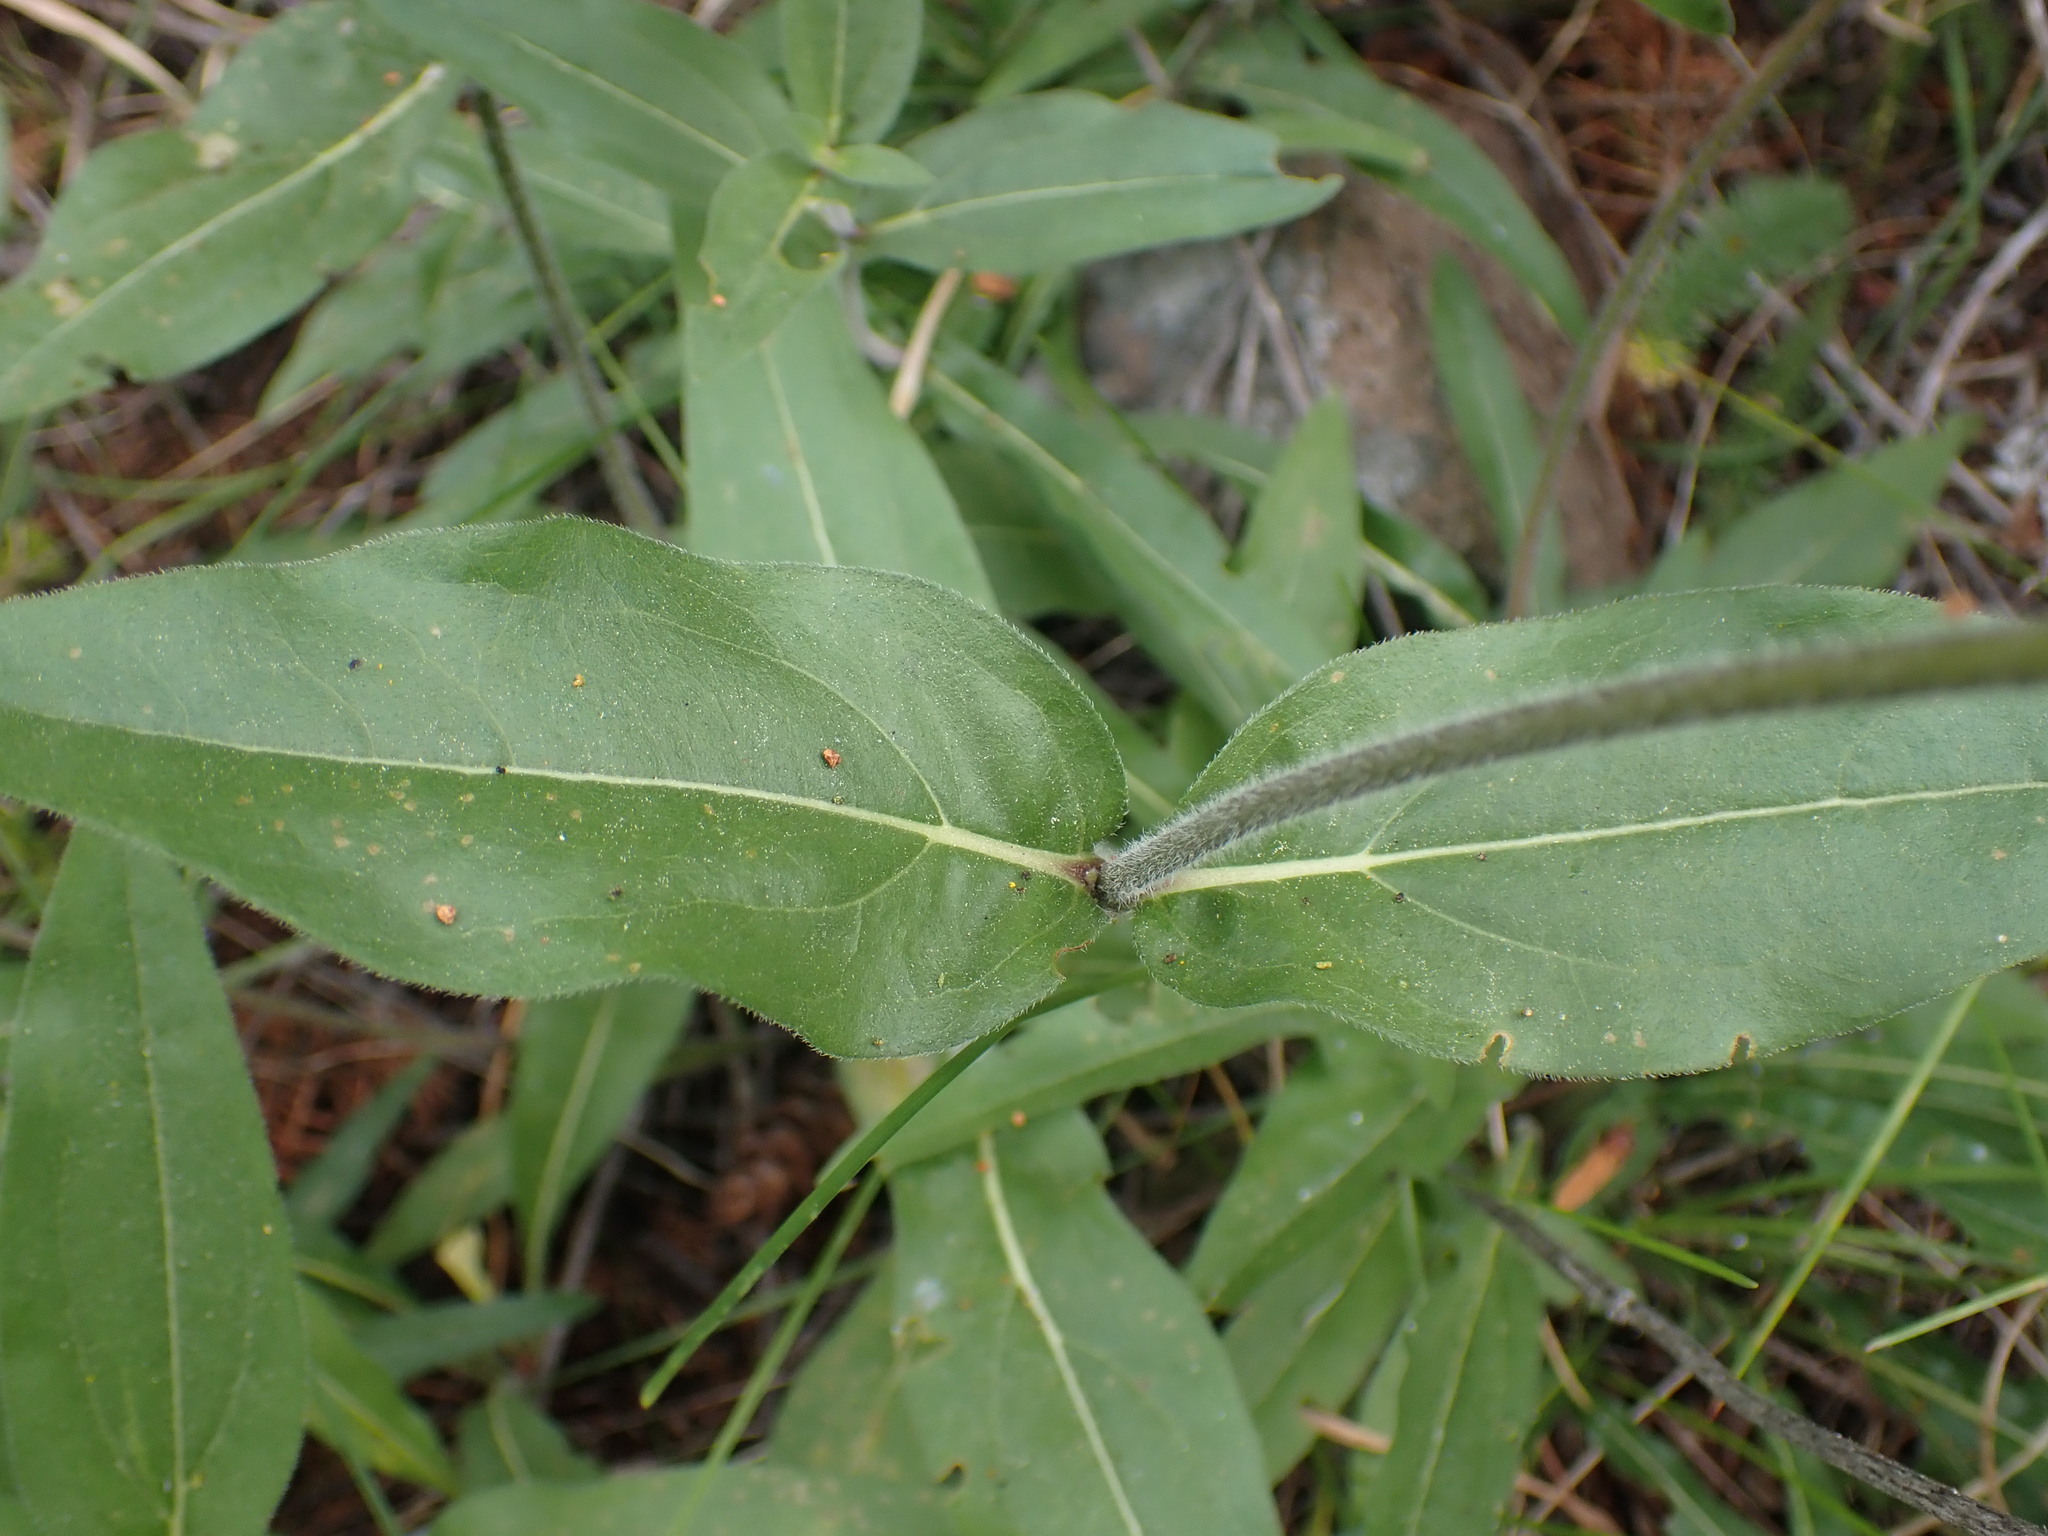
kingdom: Plantae
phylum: Tracheophyta
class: Magnoliopsida
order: Asterales
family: Asteraceae
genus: Helianthella
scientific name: Helianthella uniflora
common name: Rocky mountain dwarf sunflower
